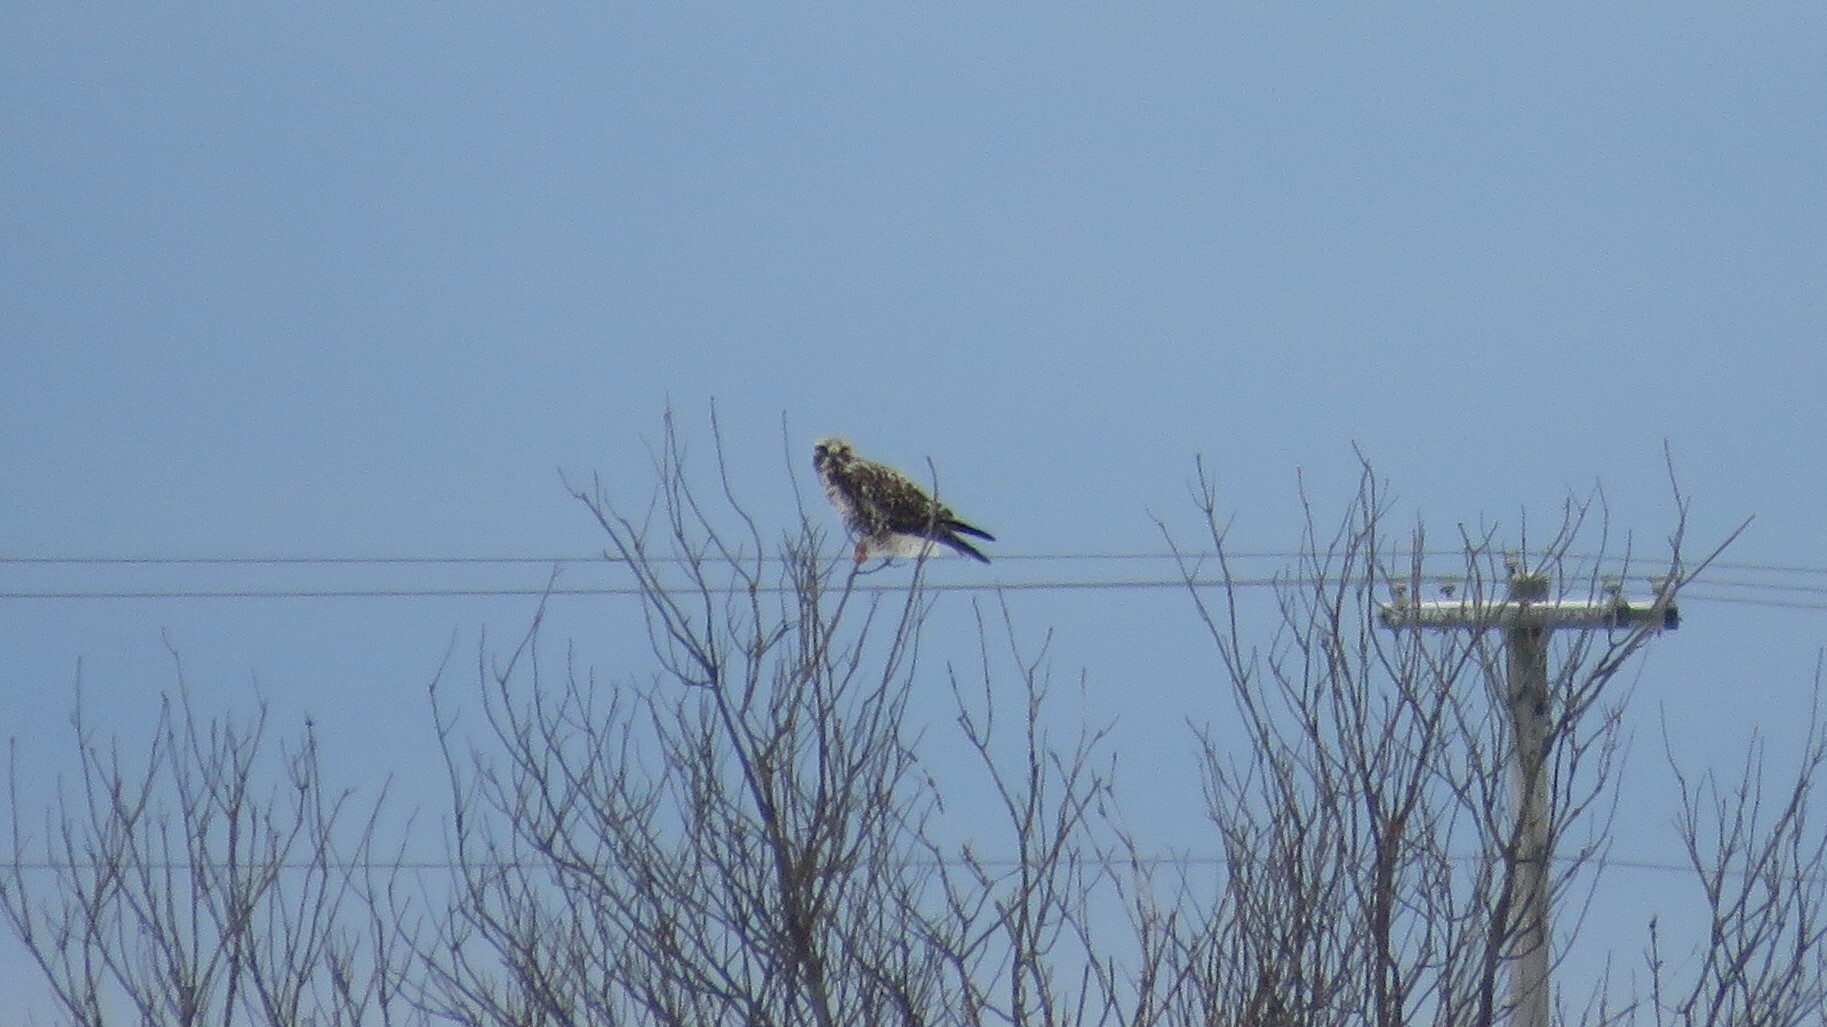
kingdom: Animalia
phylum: Chordata
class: Aves
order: Accipitriformes
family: Accipitridae
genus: Buteo
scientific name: Buteo lagopus
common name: Rough-legged buzzard
